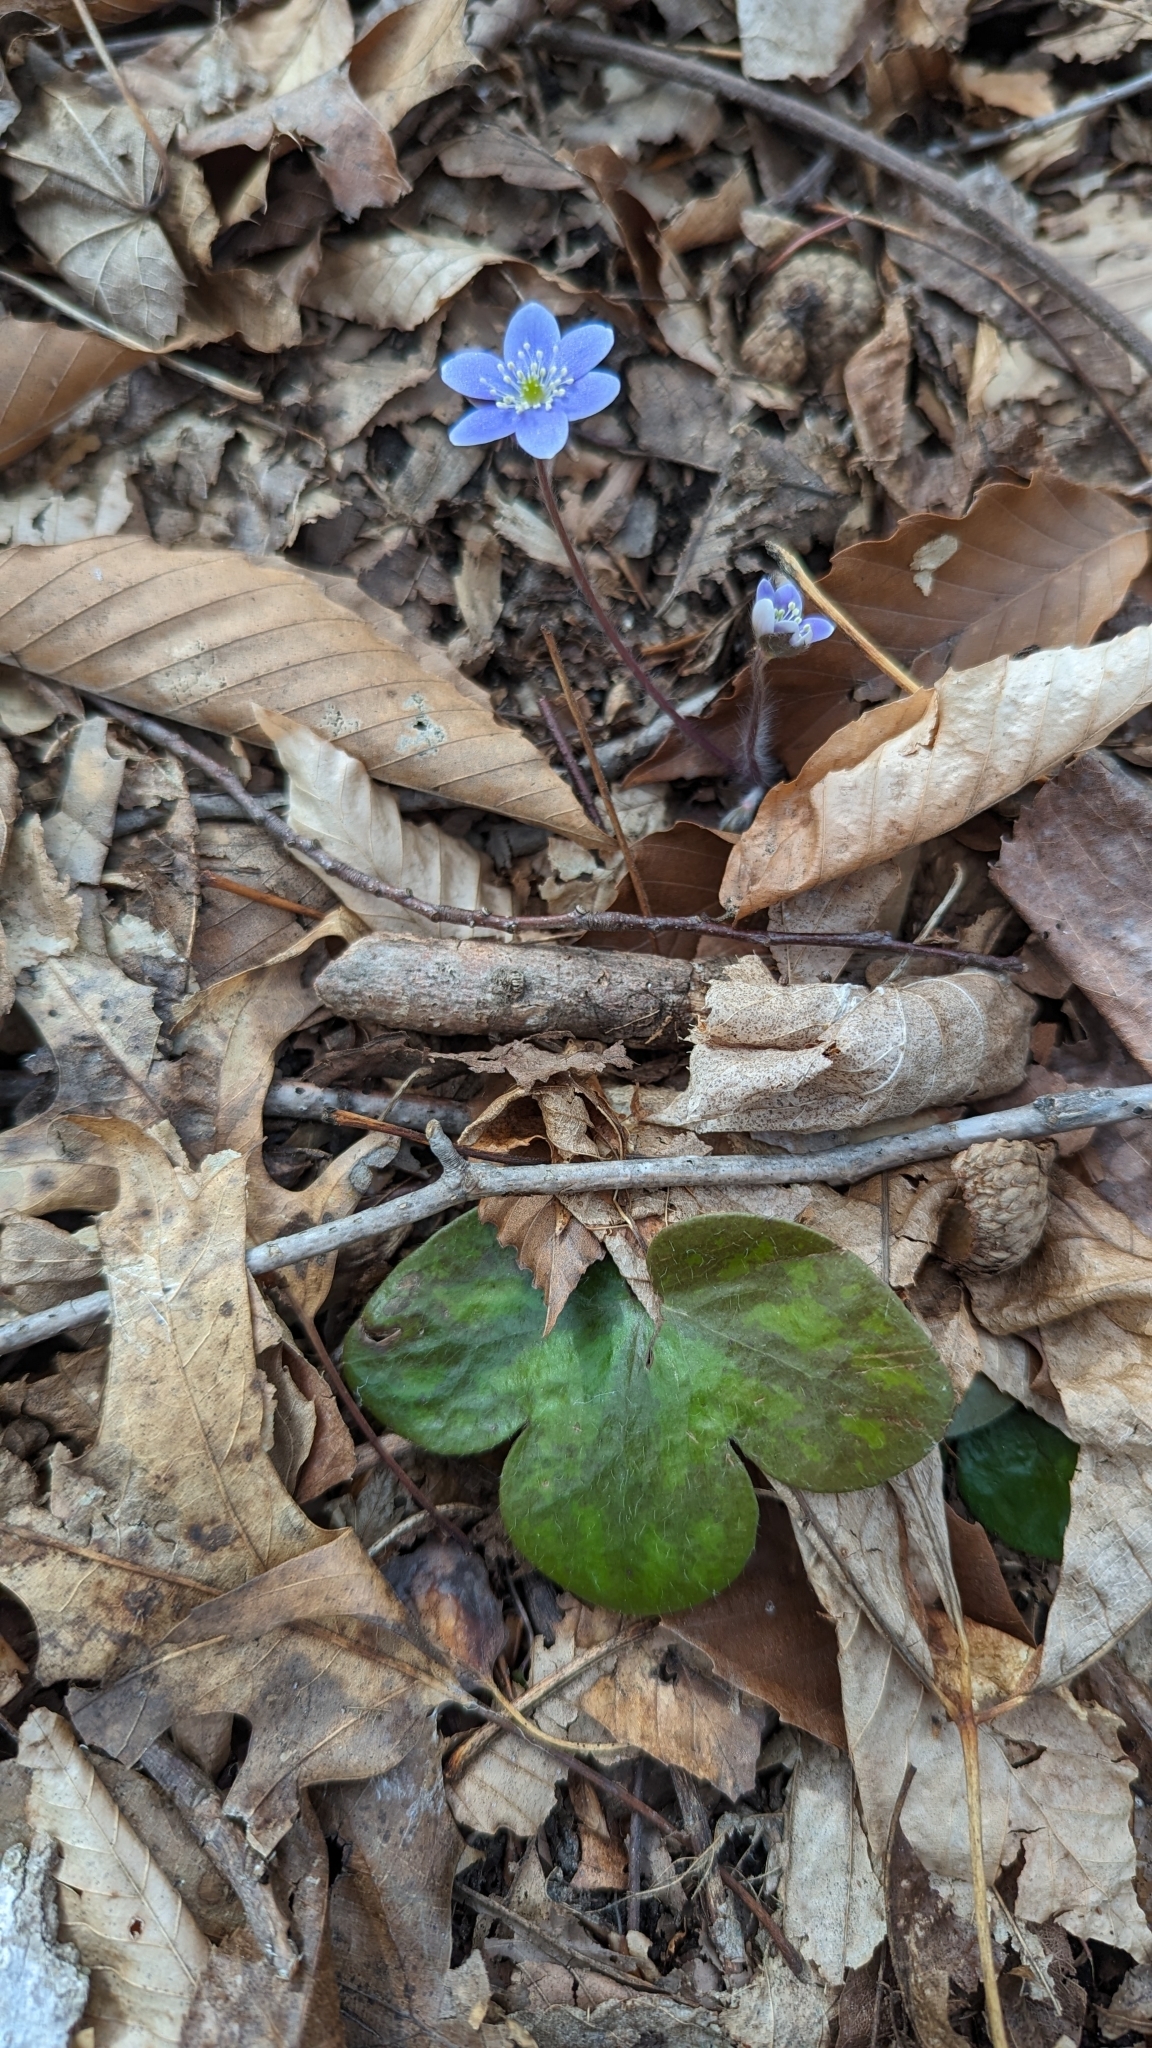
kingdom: Plantae
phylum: Tracheophyta
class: Magnoliopsida
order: Ranunculales
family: Ranunculaceae
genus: Hepatica
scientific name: Hepatica americana
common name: American hepatica
